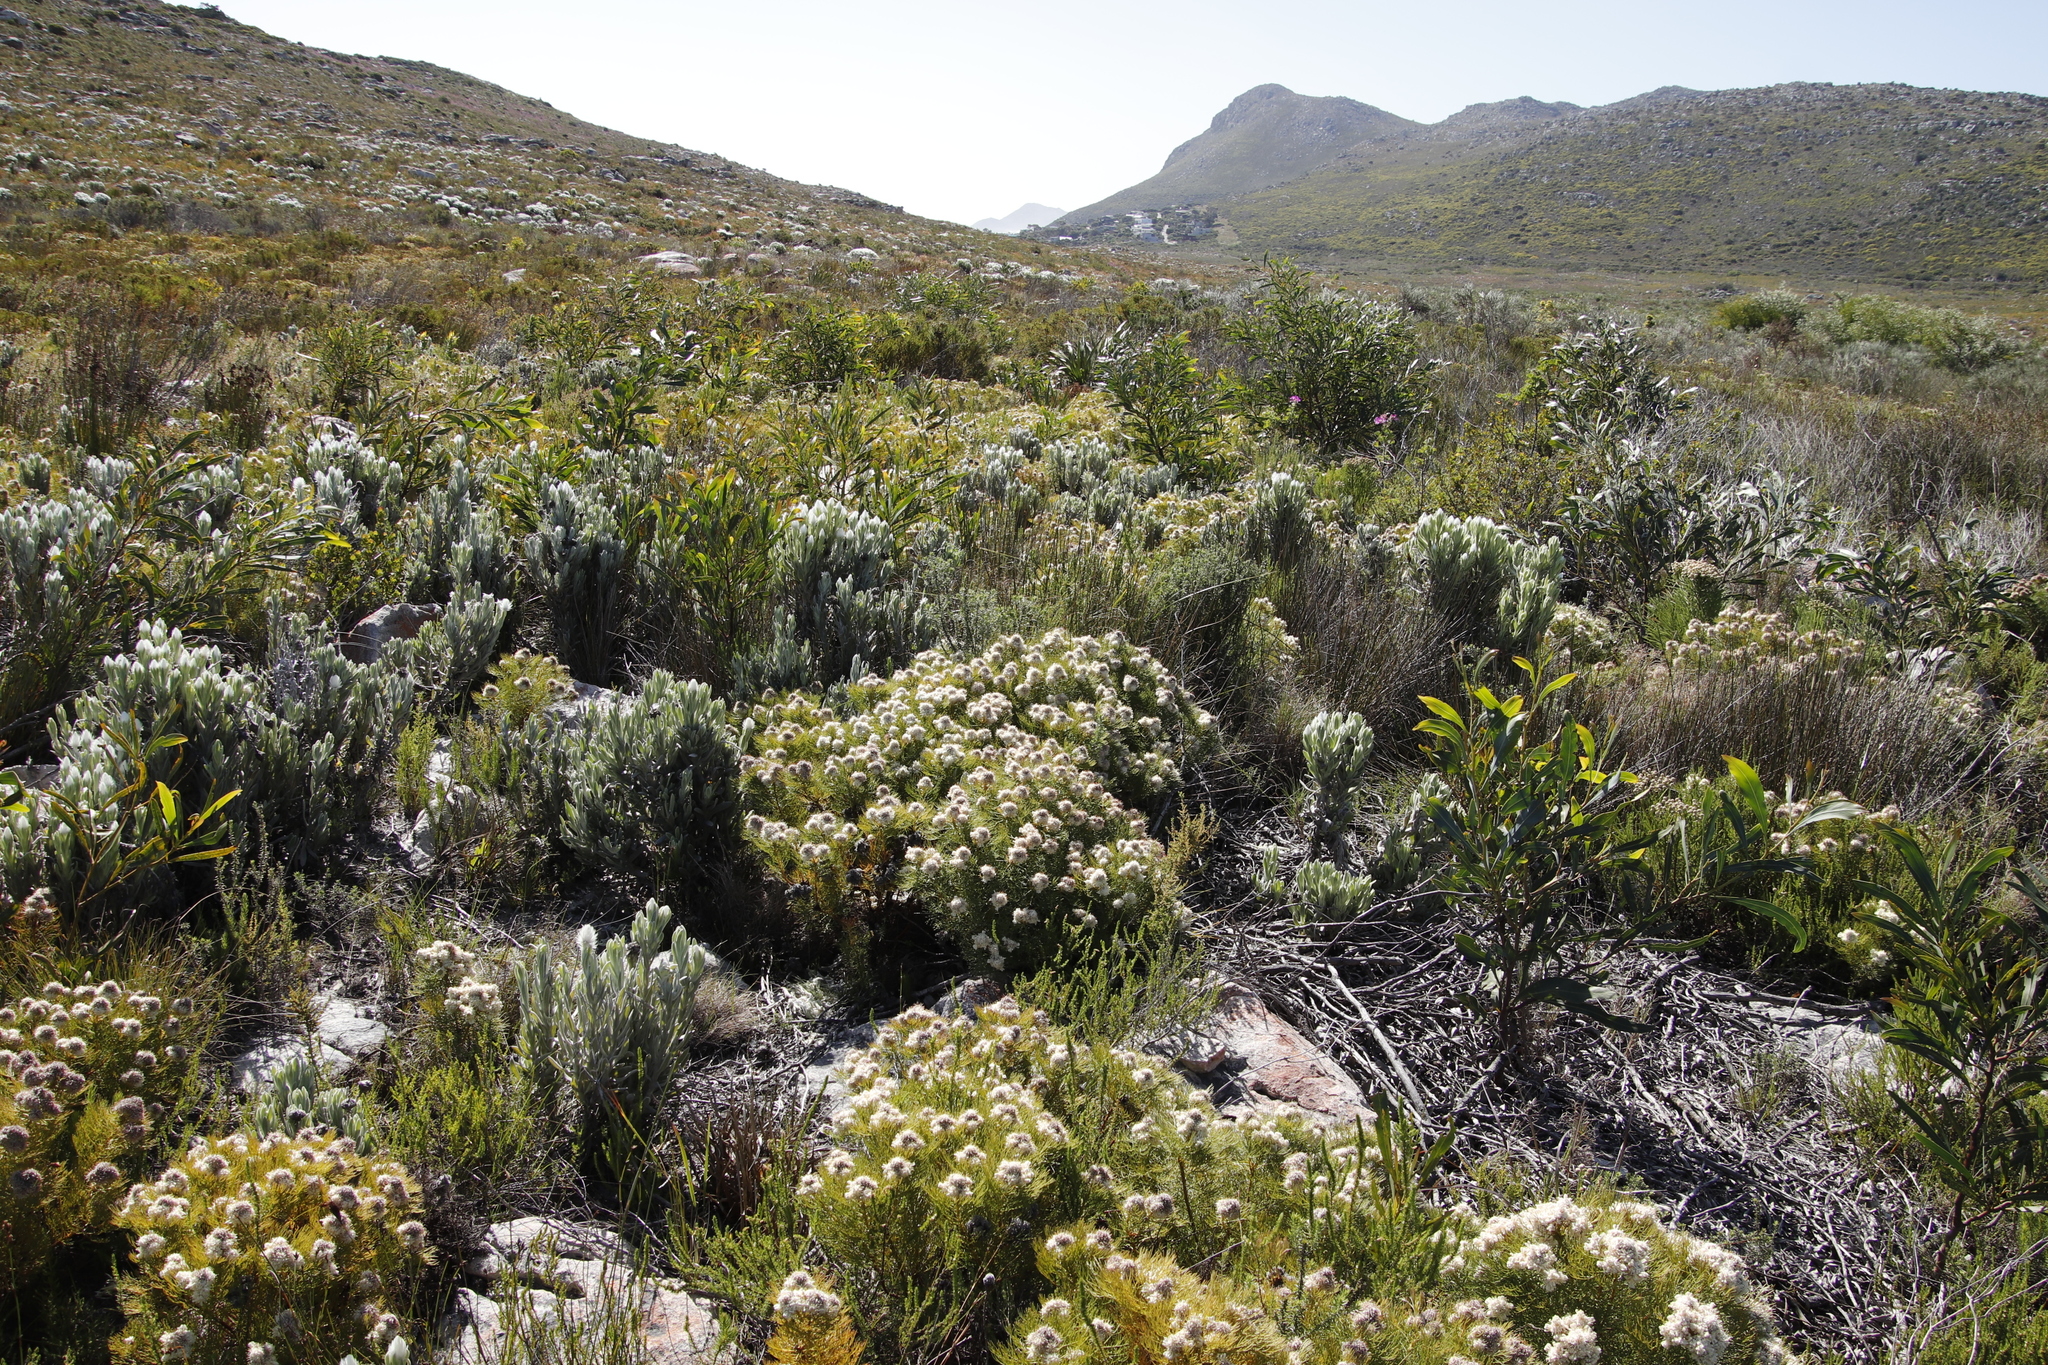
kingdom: Plantae
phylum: Tracheophyta
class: Magnoliopsida
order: Proteales
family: Proteaceae
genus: Serruria
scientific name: Serruria glomerata
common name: Cluster spiderhead
